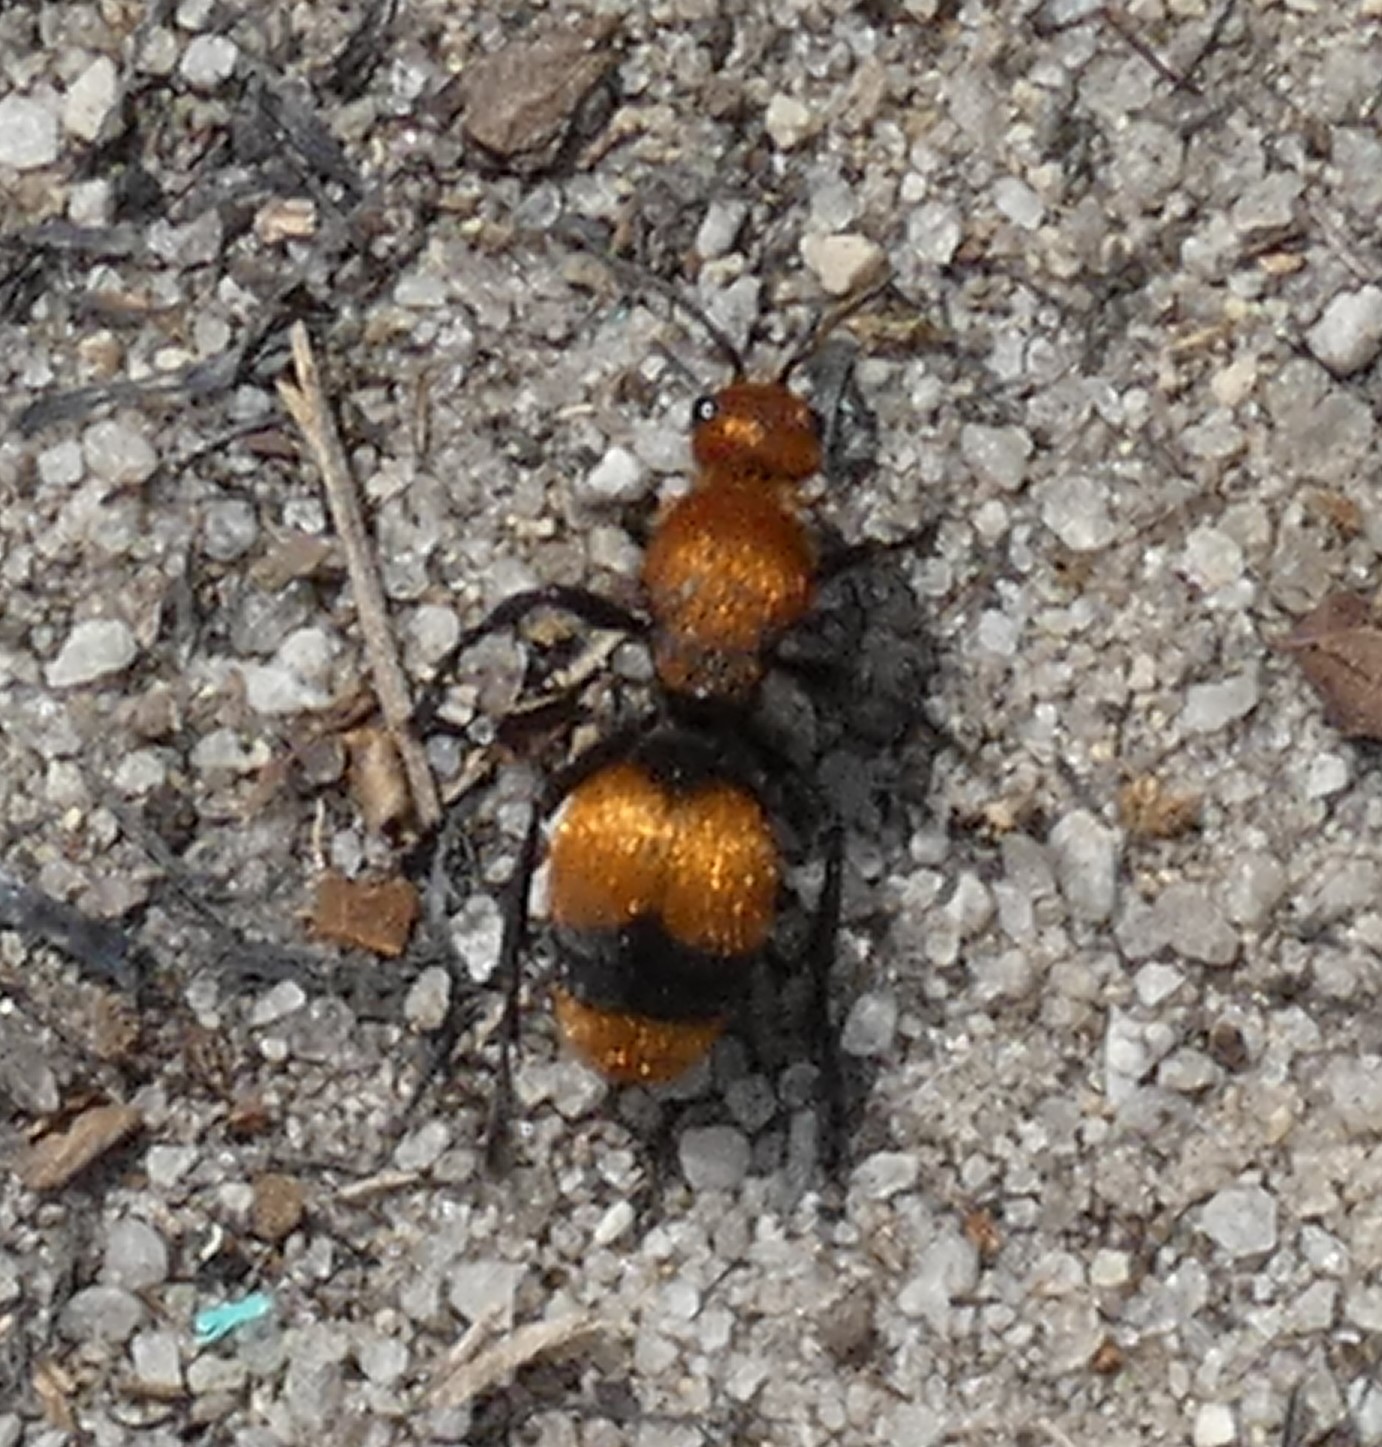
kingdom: Animalia
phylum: Arthropoda
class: Insecta
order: Hymenoptera
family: Mutillidae
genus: Dasymutilla
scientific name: Dasymutilla occidentalis
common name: Common eastern velvet ant
